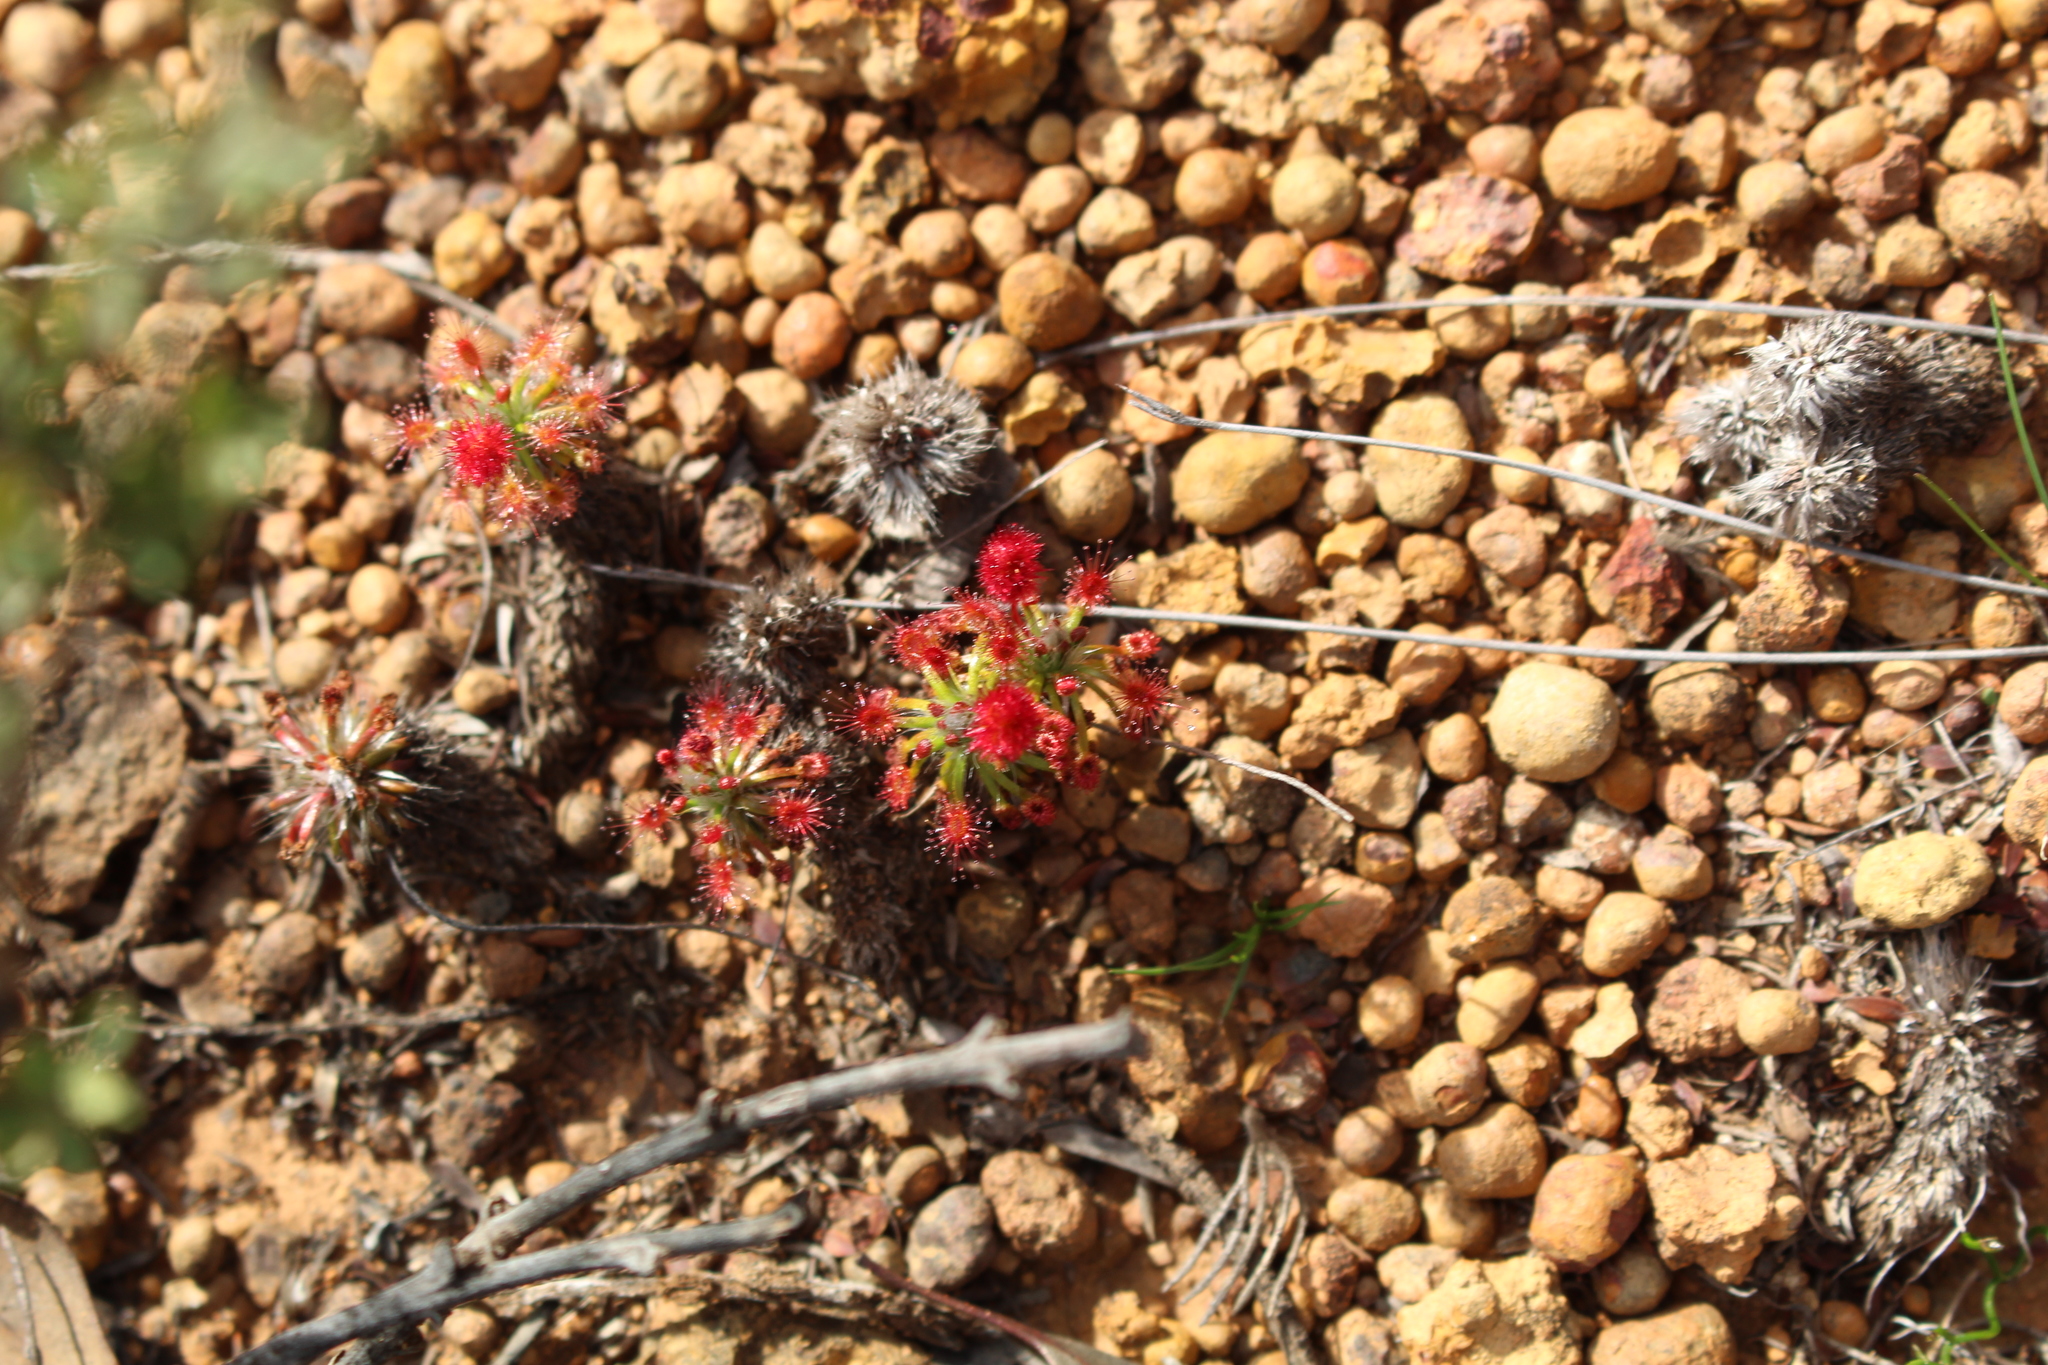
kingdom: Plantae
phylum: Tracheophyta
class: Magnoliopsida
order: Caryophyllales
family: Droseraceae
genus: Drosera
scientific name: Drosera barbigera
